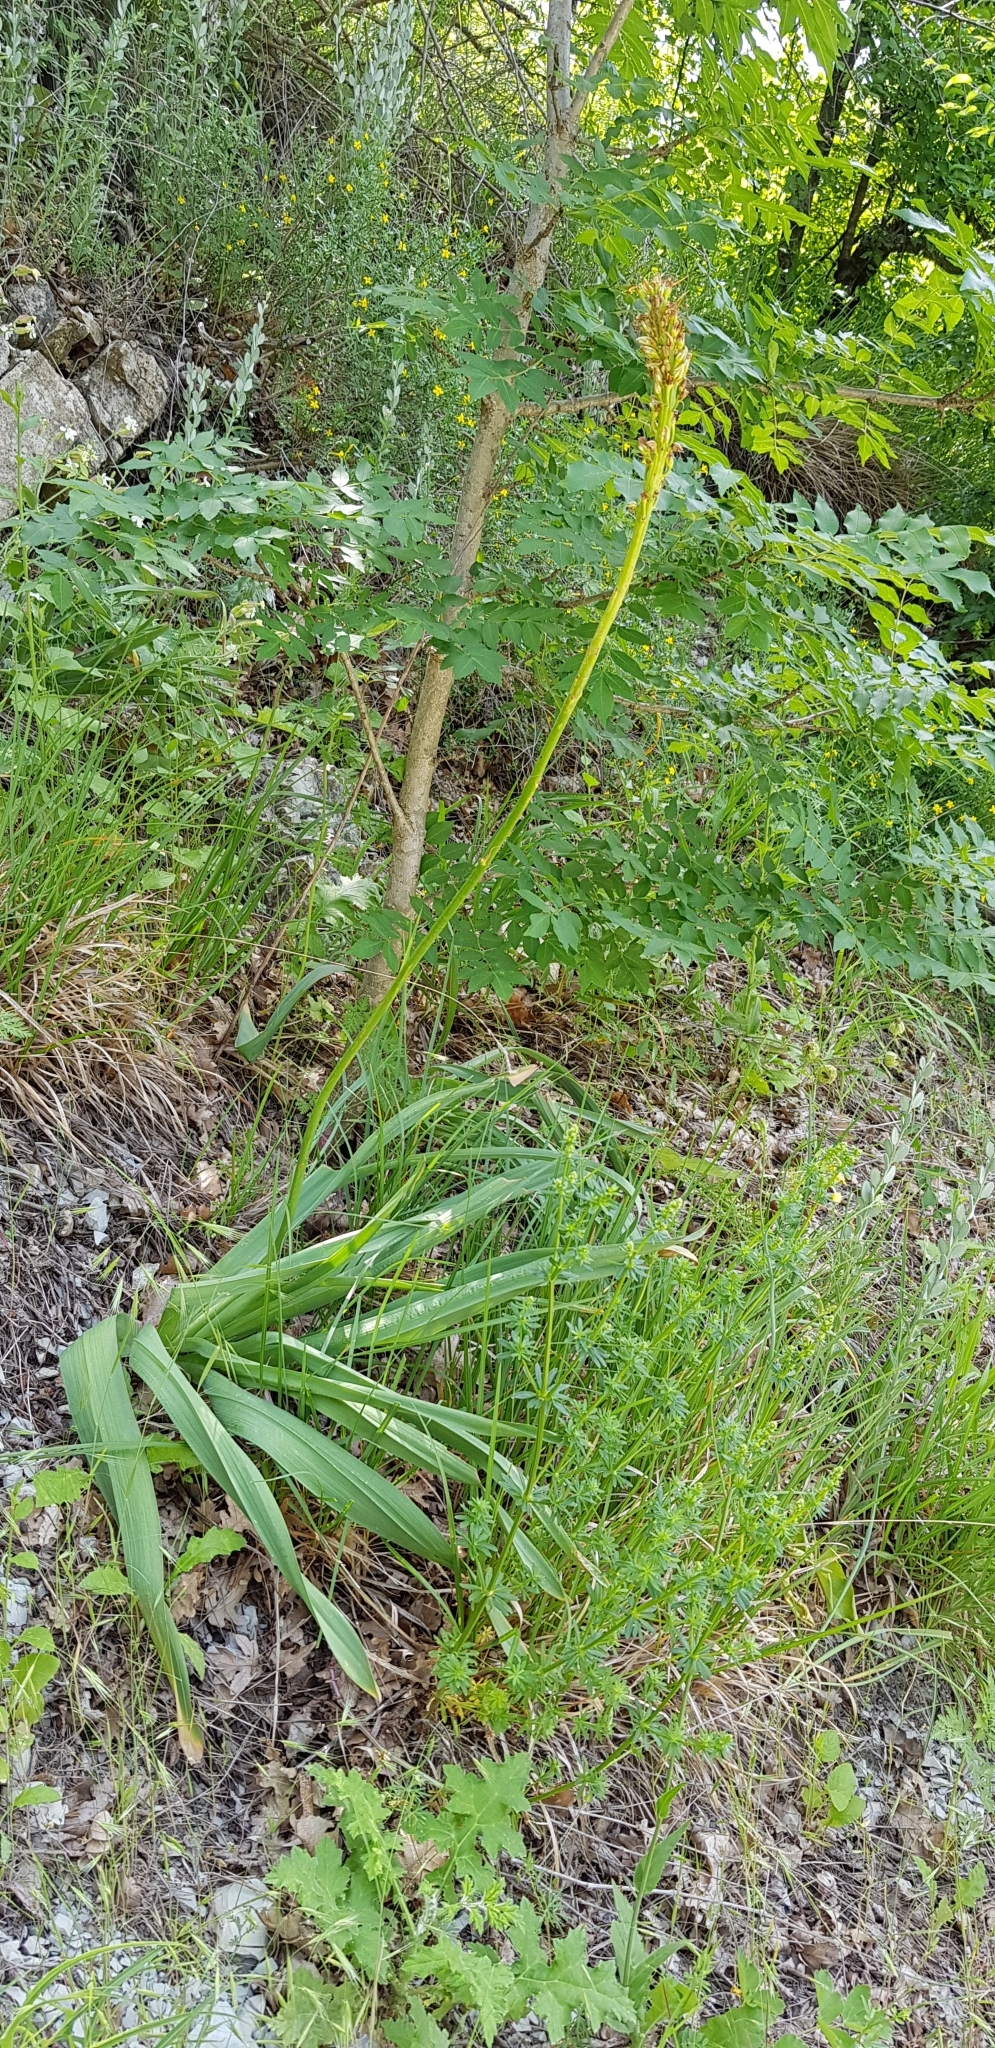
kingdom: Plantae
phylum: Tracheophyta
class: Liliopsida
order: Asparagales
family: Asphodelaceae
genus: Eremurus
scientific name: Eremurus spectabilis
